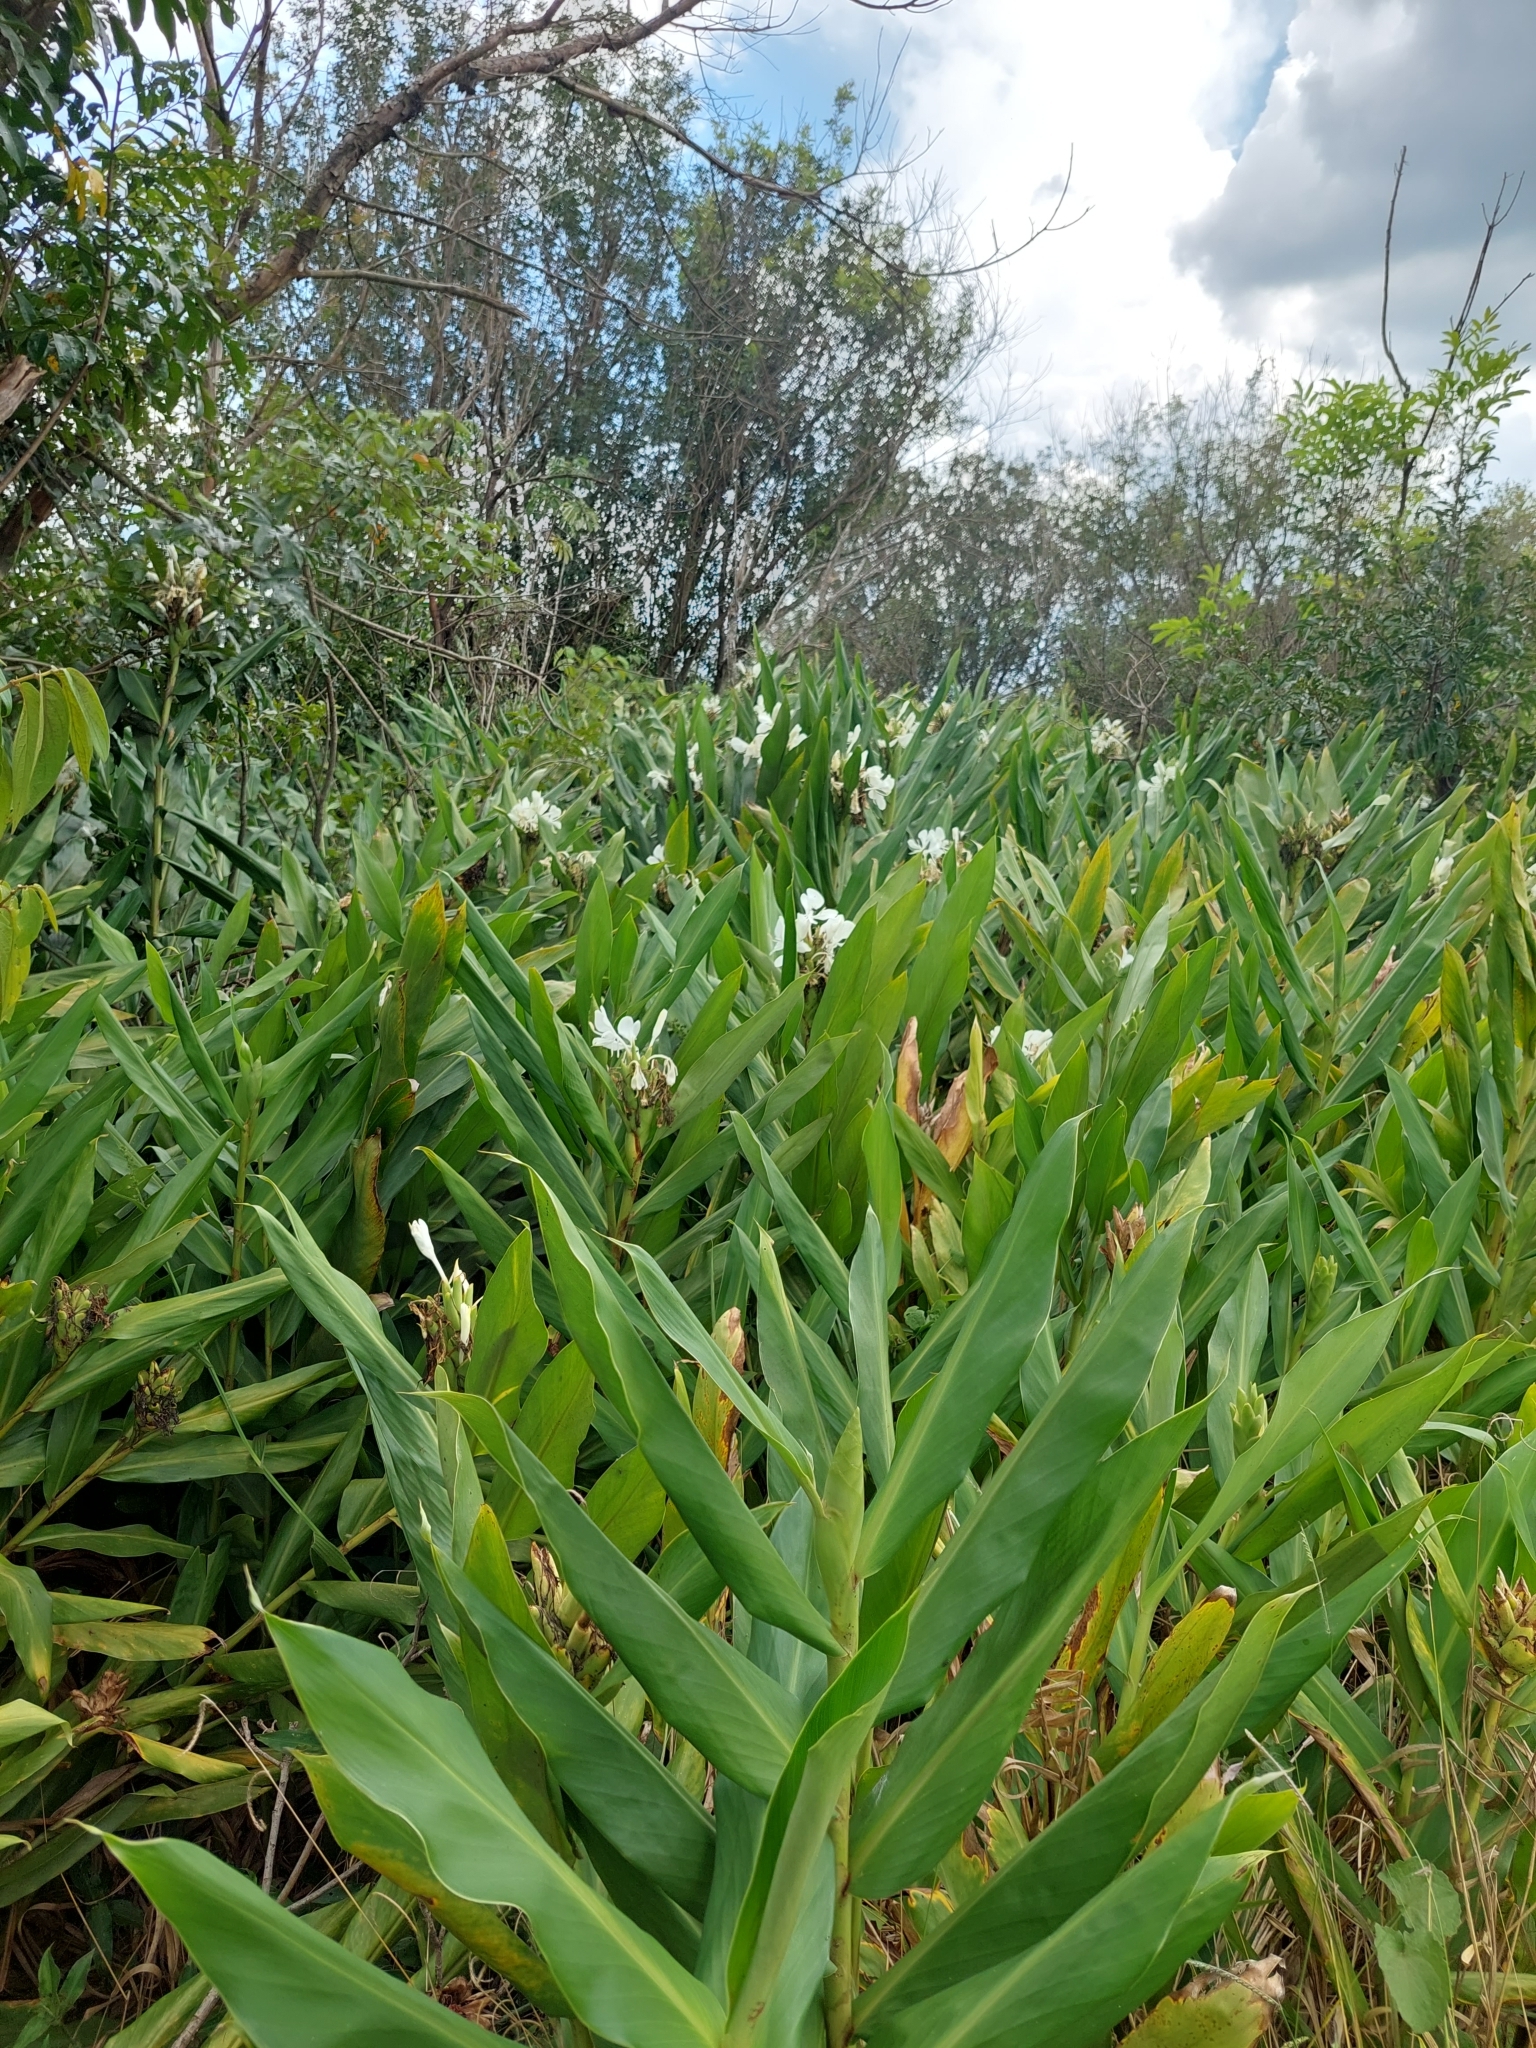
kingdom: Plantae
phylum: Tracheophyta
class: Liliopsida
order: Zingiberales
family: Zingiberaceae
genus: Hedychium
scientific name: Hedychium coronarium
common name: White garland-lily
